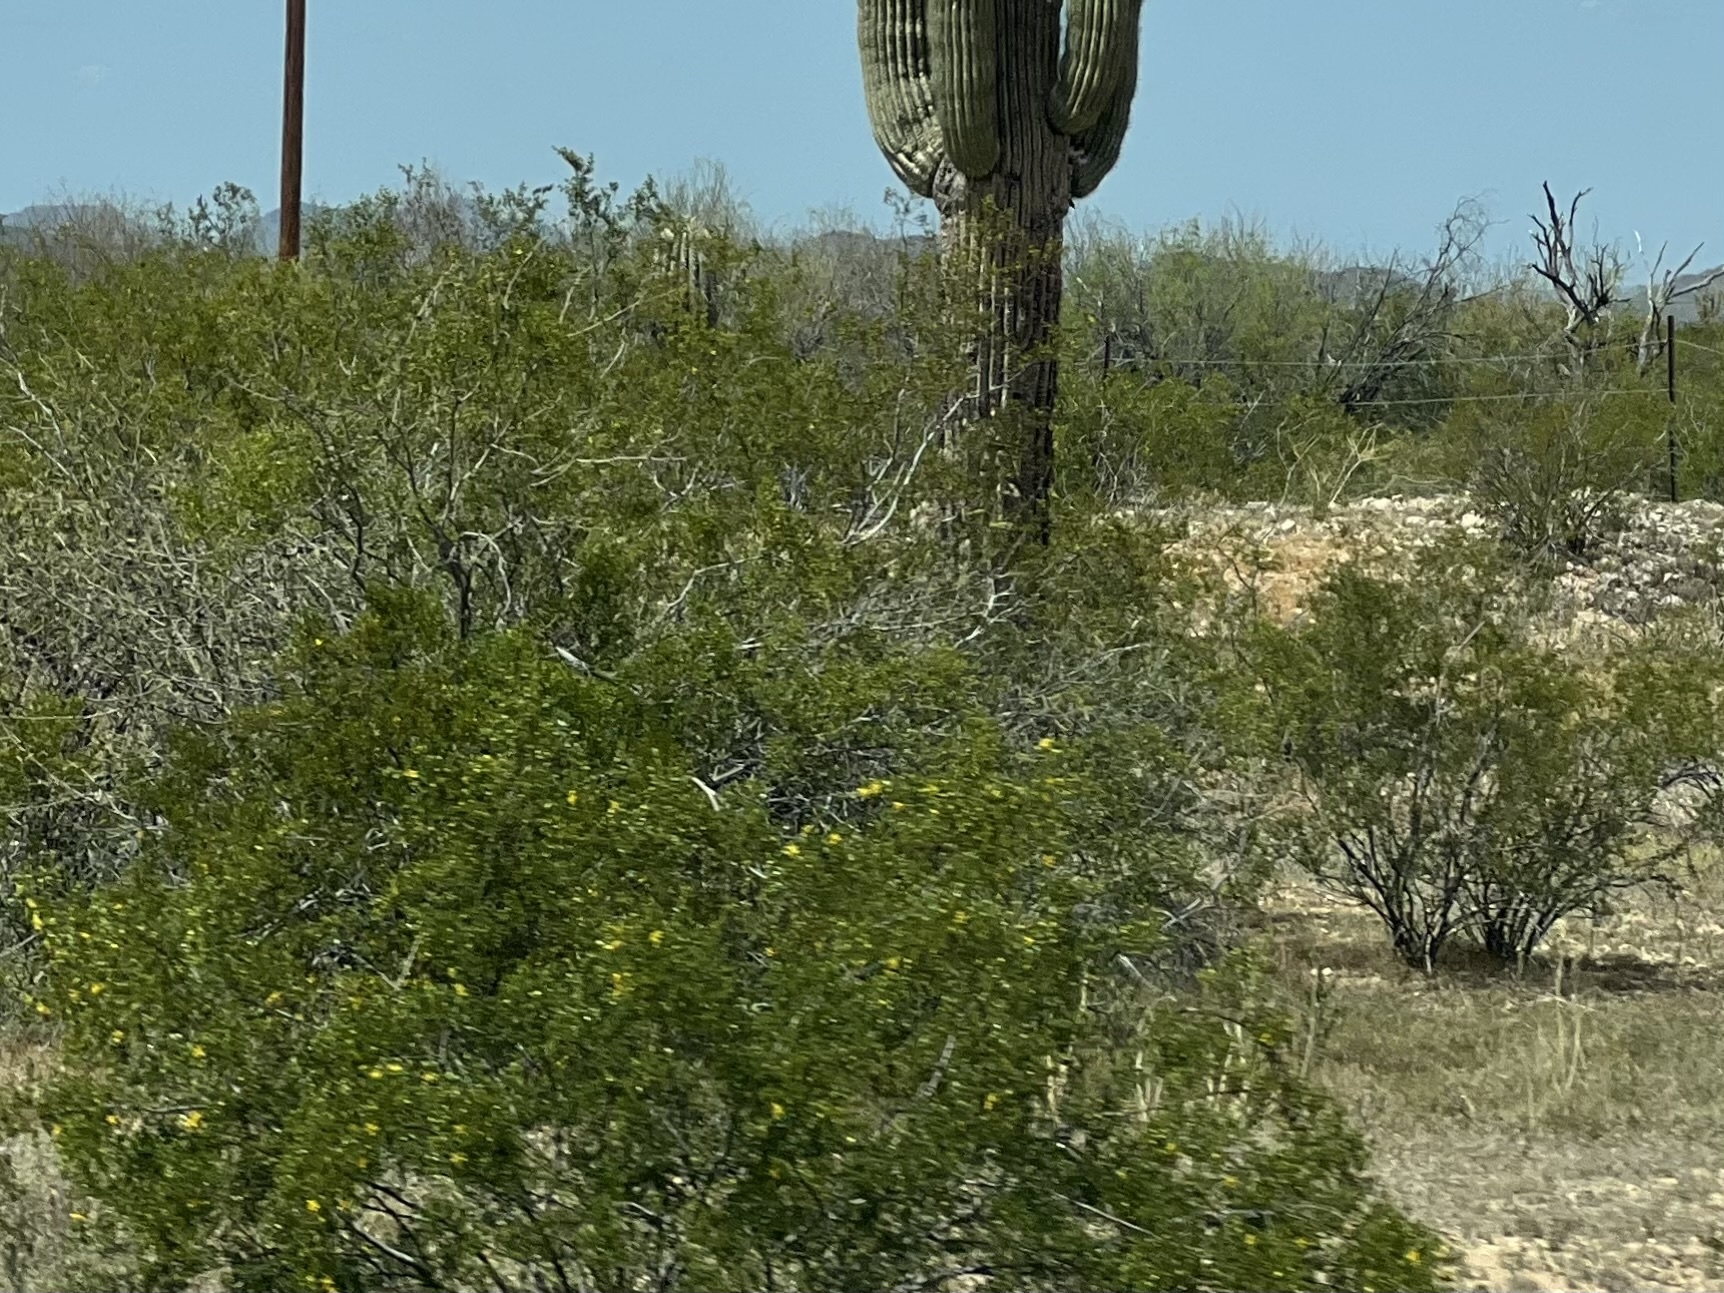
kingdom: Plantae
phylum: Tracheophyta
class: Magnoliopsida
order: Zygophyllales
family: Zygophyllaceae
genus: Larrea
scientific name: Larrea tridentata
